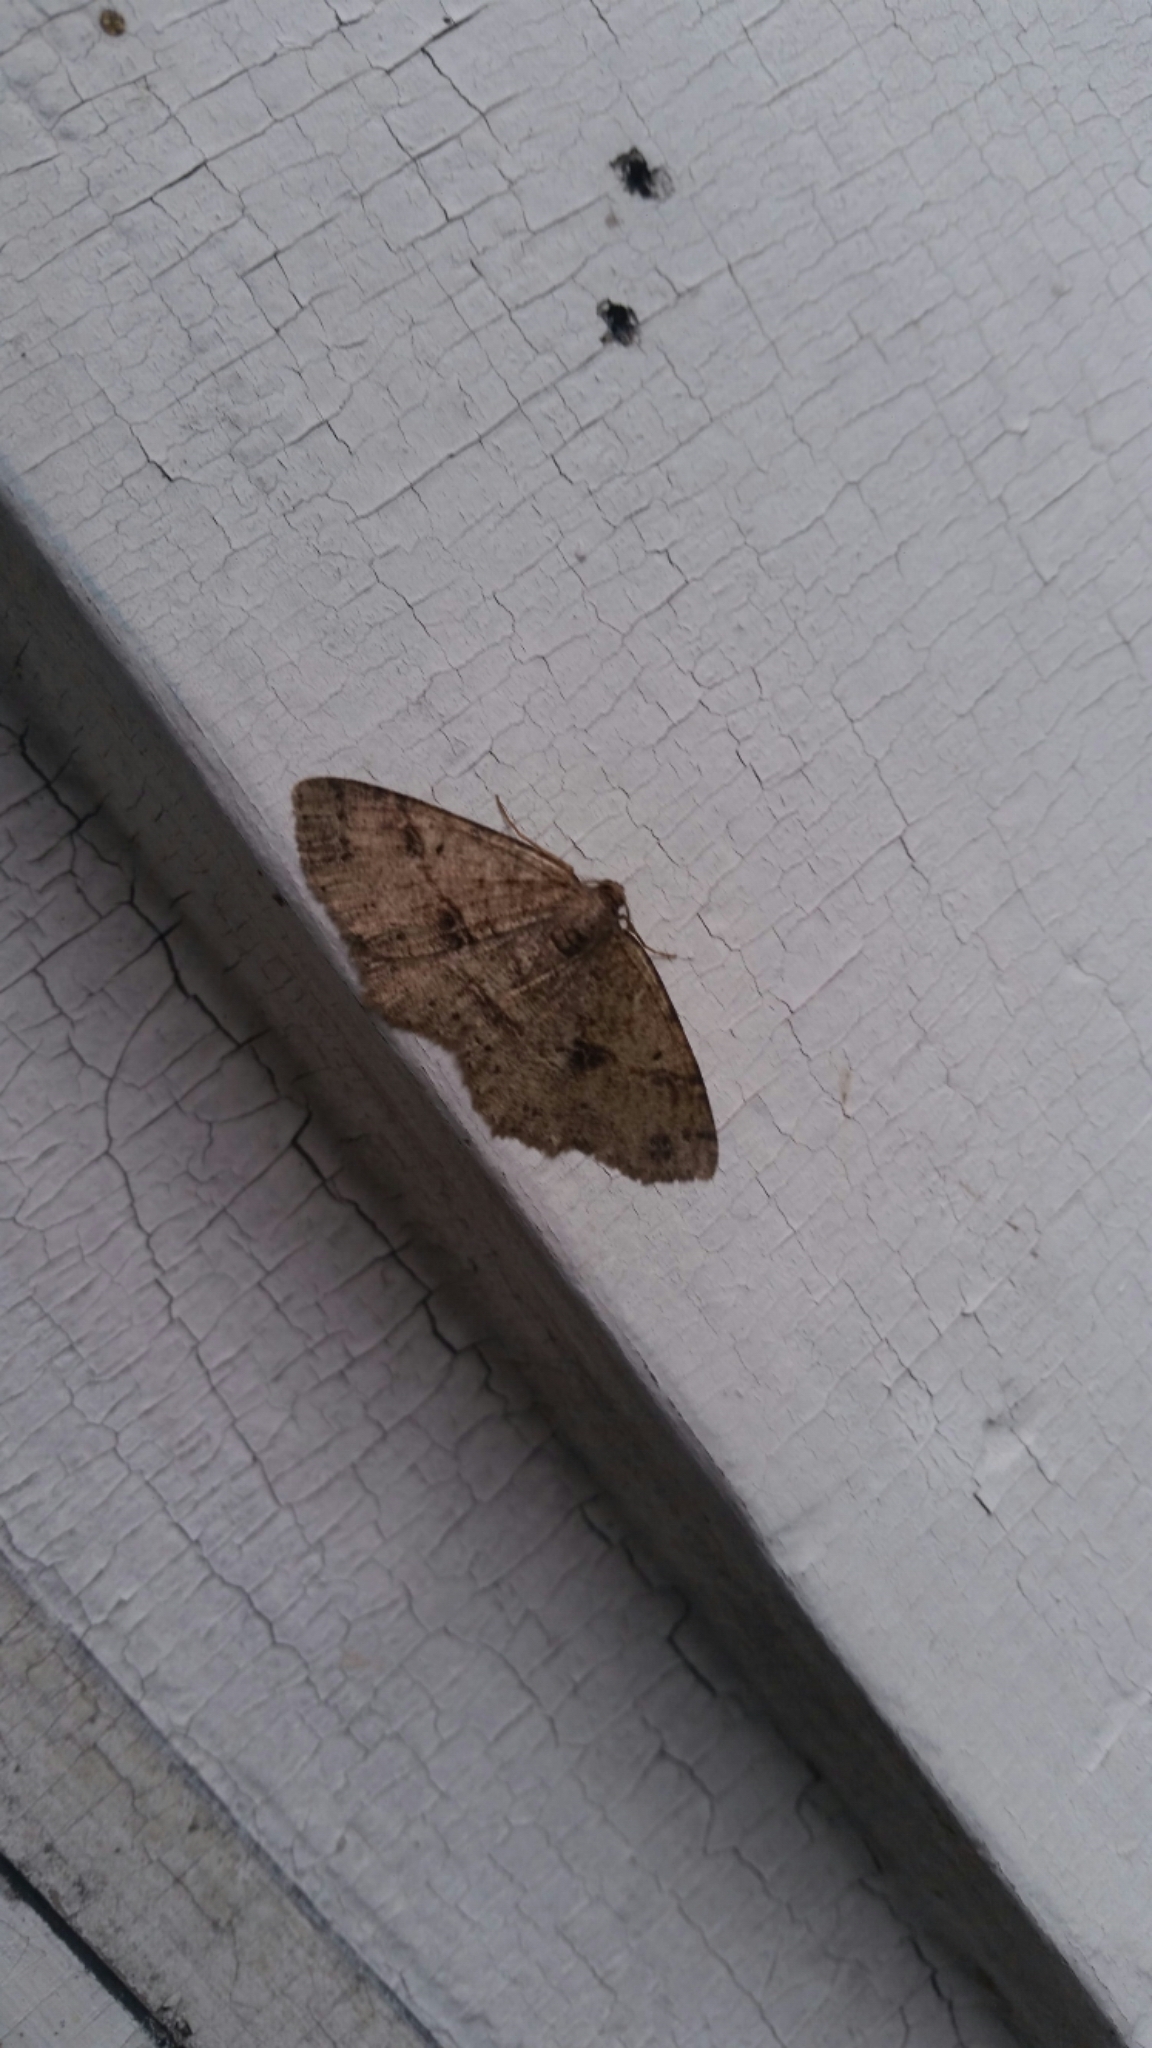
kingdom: Animalia
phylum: Arthropoda
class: Insecta
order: Lepidoptera
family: Geometridae
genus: Melanolophia
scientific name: Melanolophia signataria
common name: Signate melanolophia
